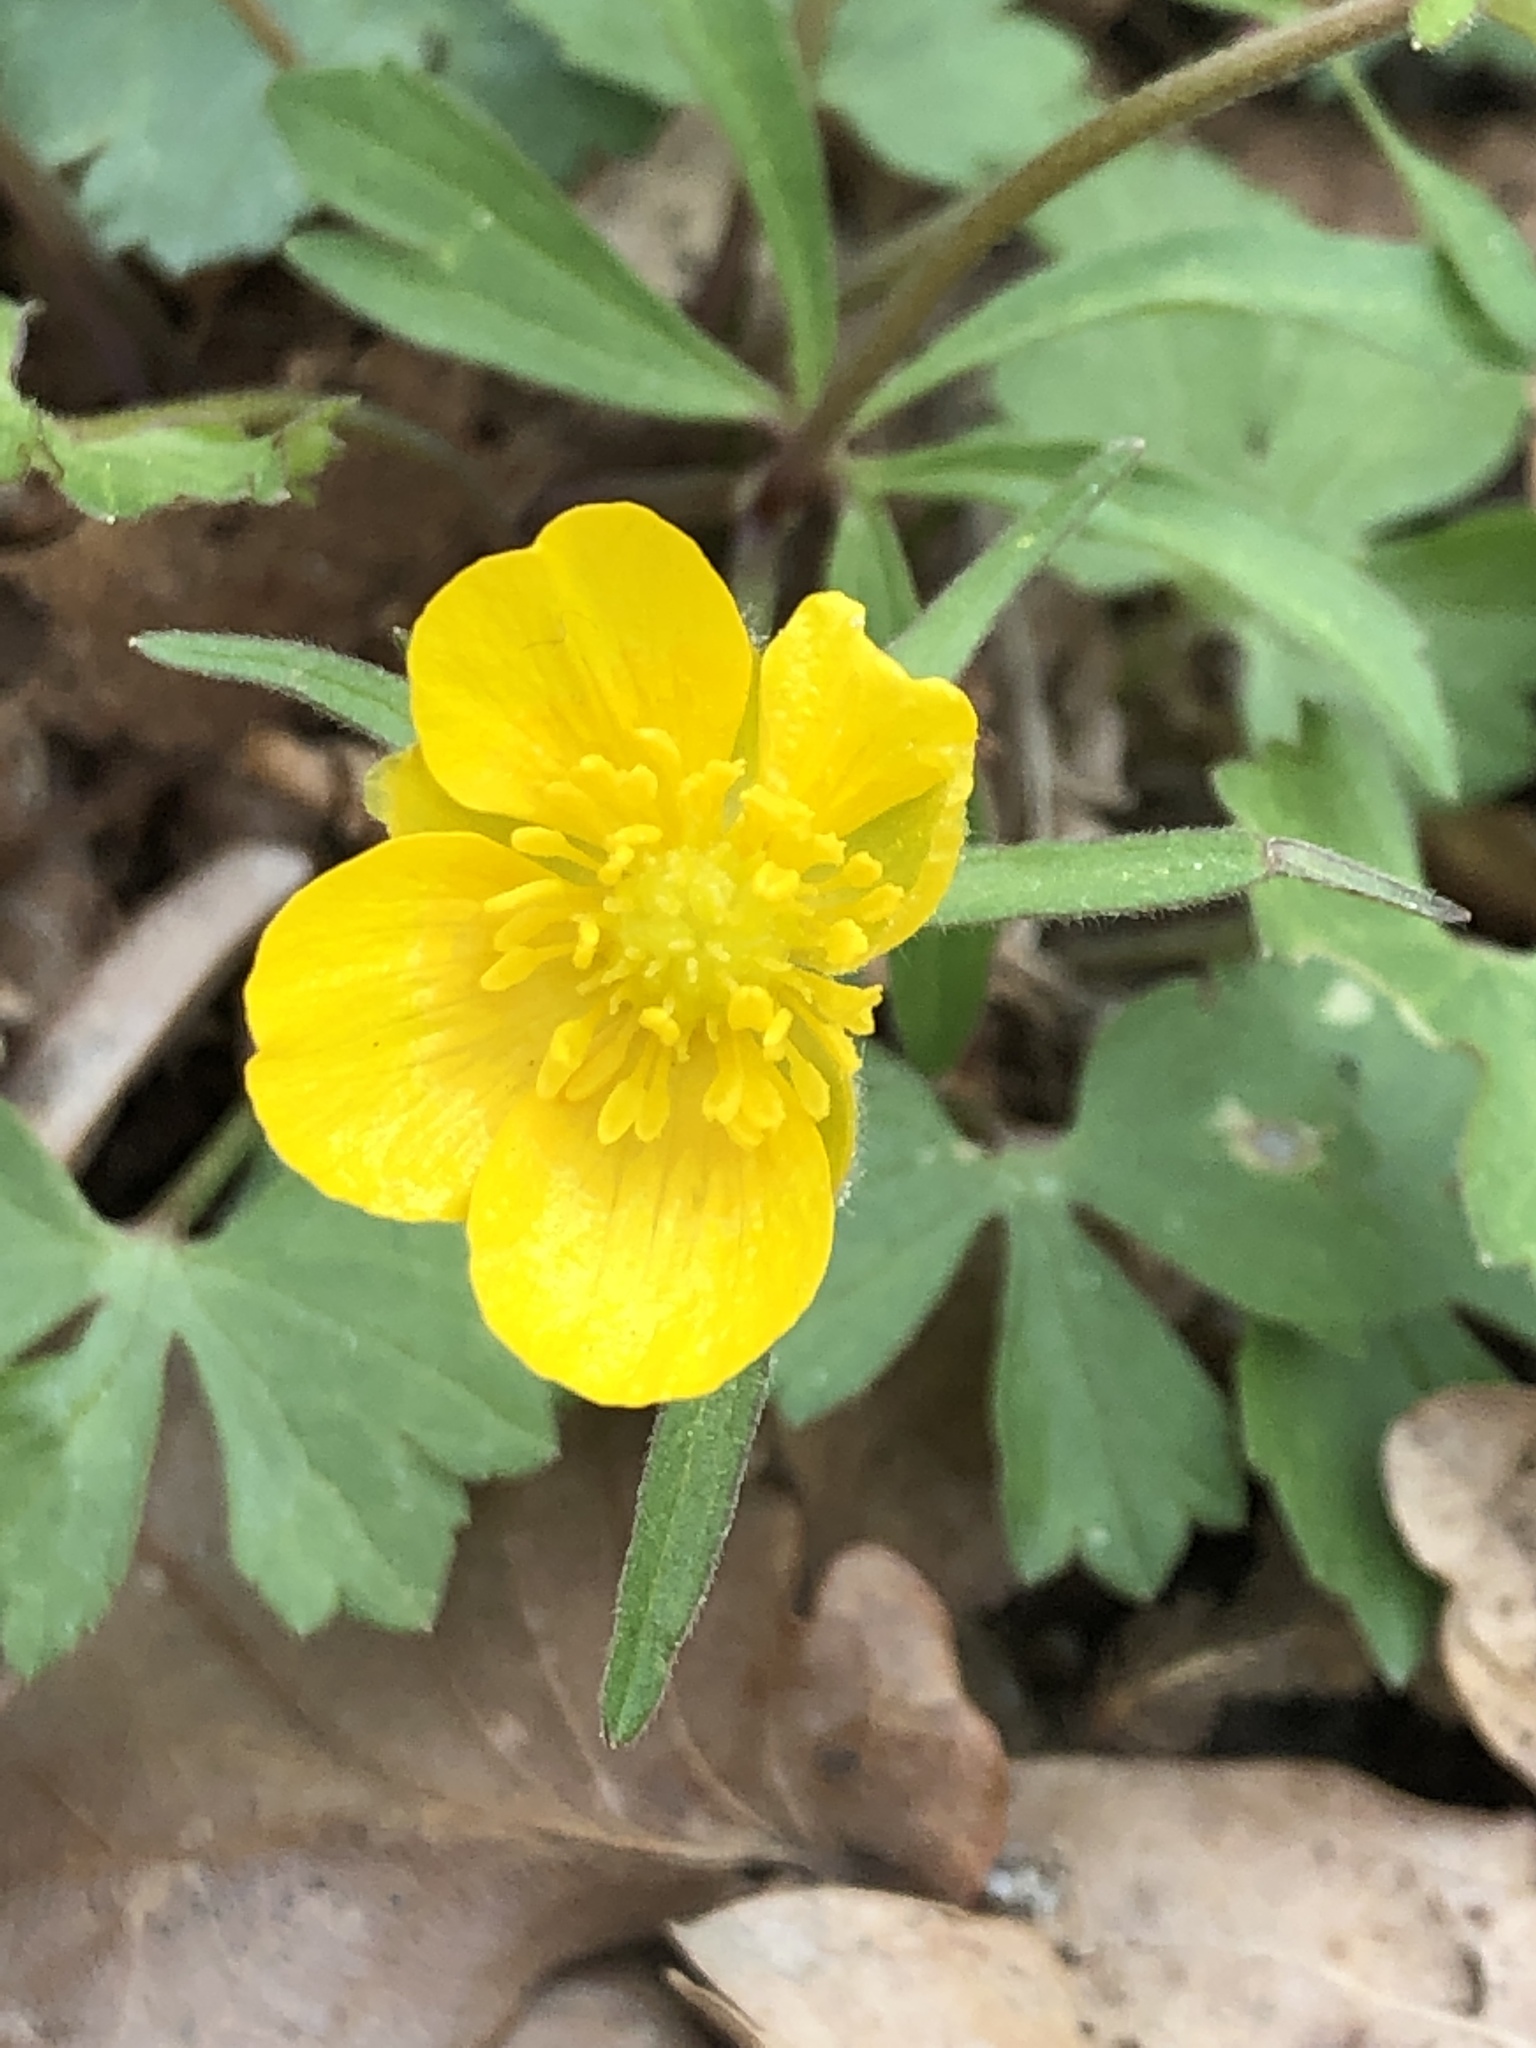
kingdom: Plantae
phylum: Tracheophyta
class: Magnoliopsida
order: Ranunculales
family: Ranunculaceae
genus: Ranunculus
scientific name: Ranunculus auricomus
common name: Goldilocks buttercup
